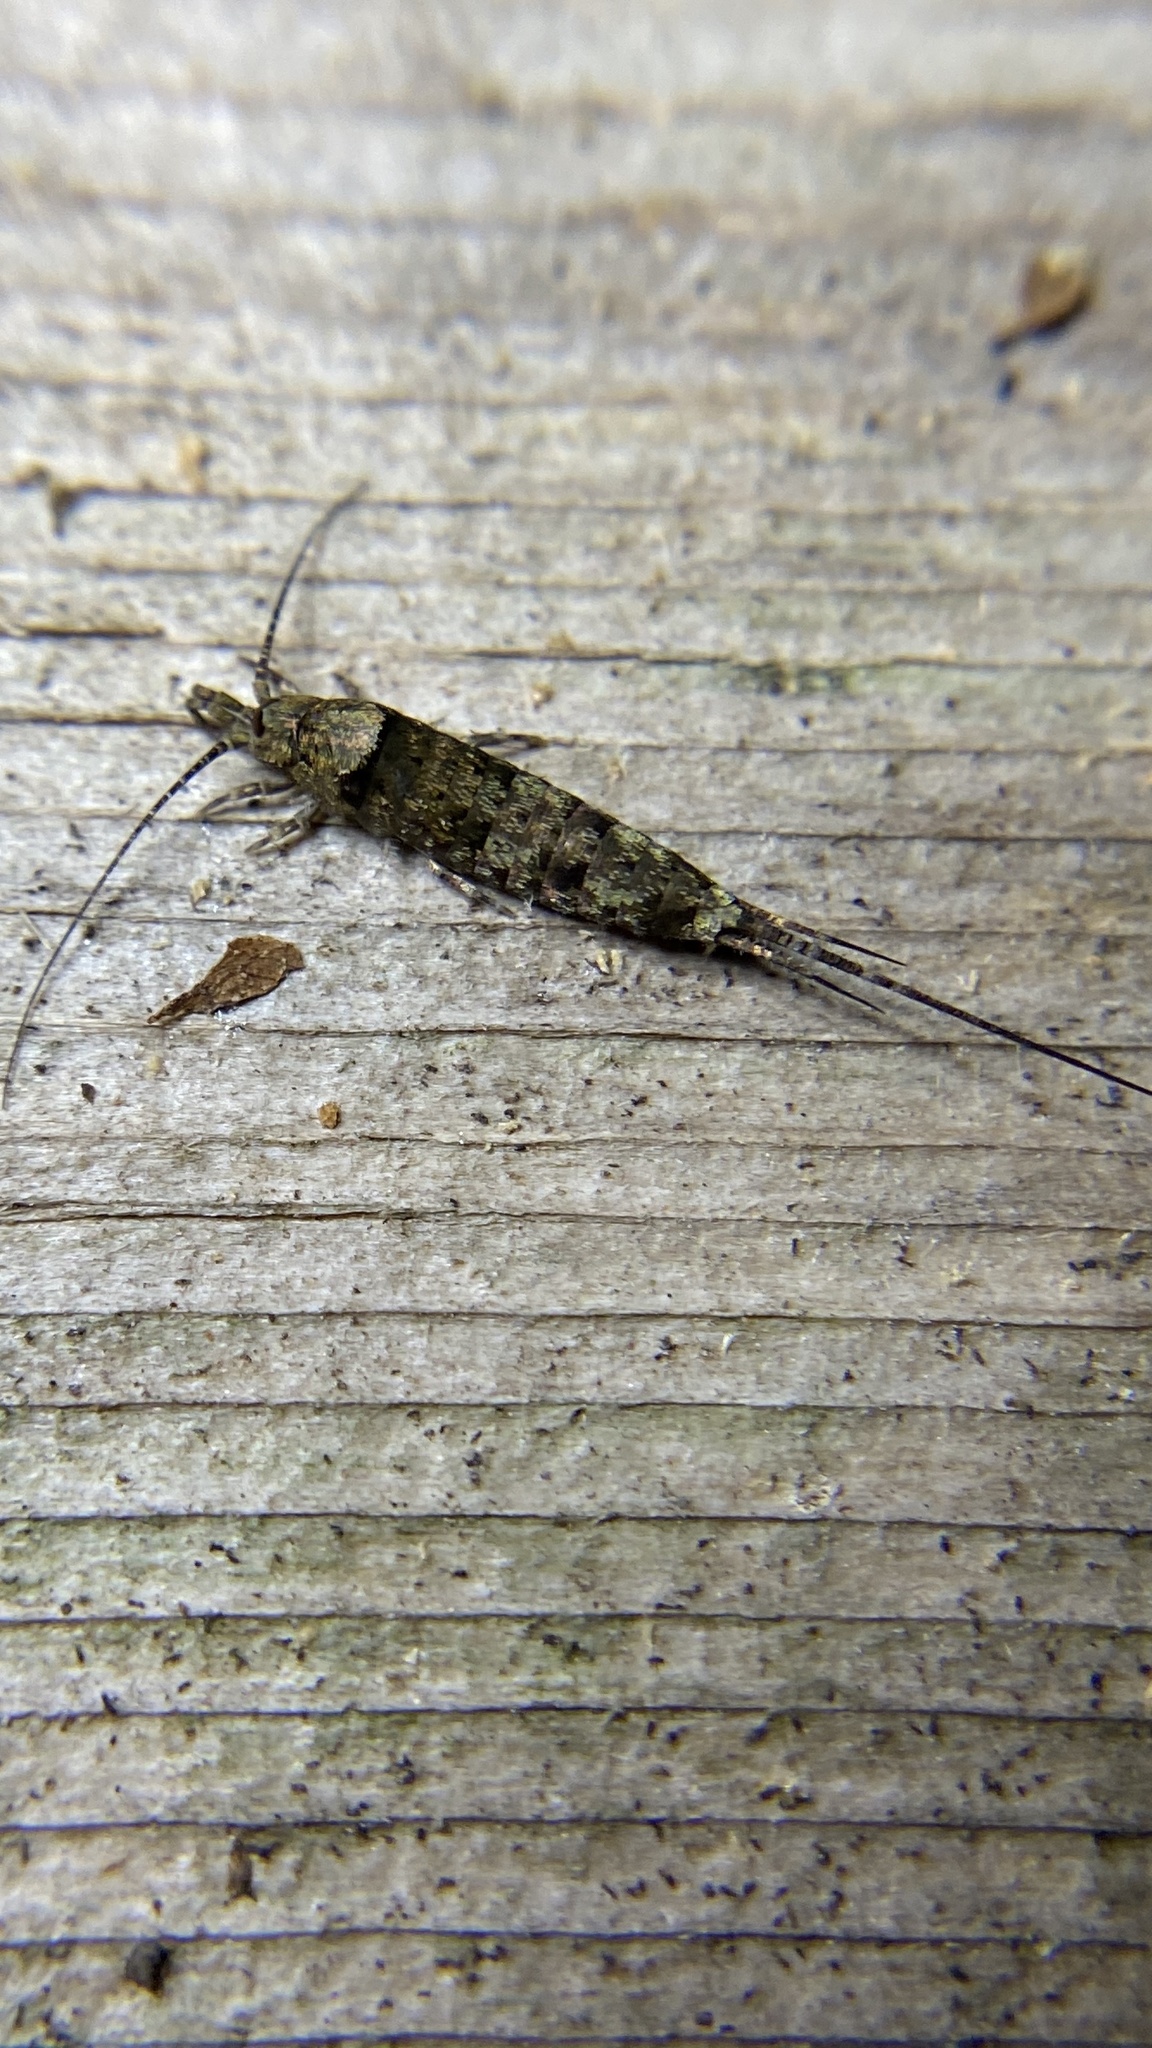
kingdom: Animalia
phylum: Arthropoda
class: Insecta
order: Archaeognatha
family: Machilidae
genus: Trigoniophthalmus
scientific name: Trigoniophthalmus alternatus
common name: Jumping bristletail
